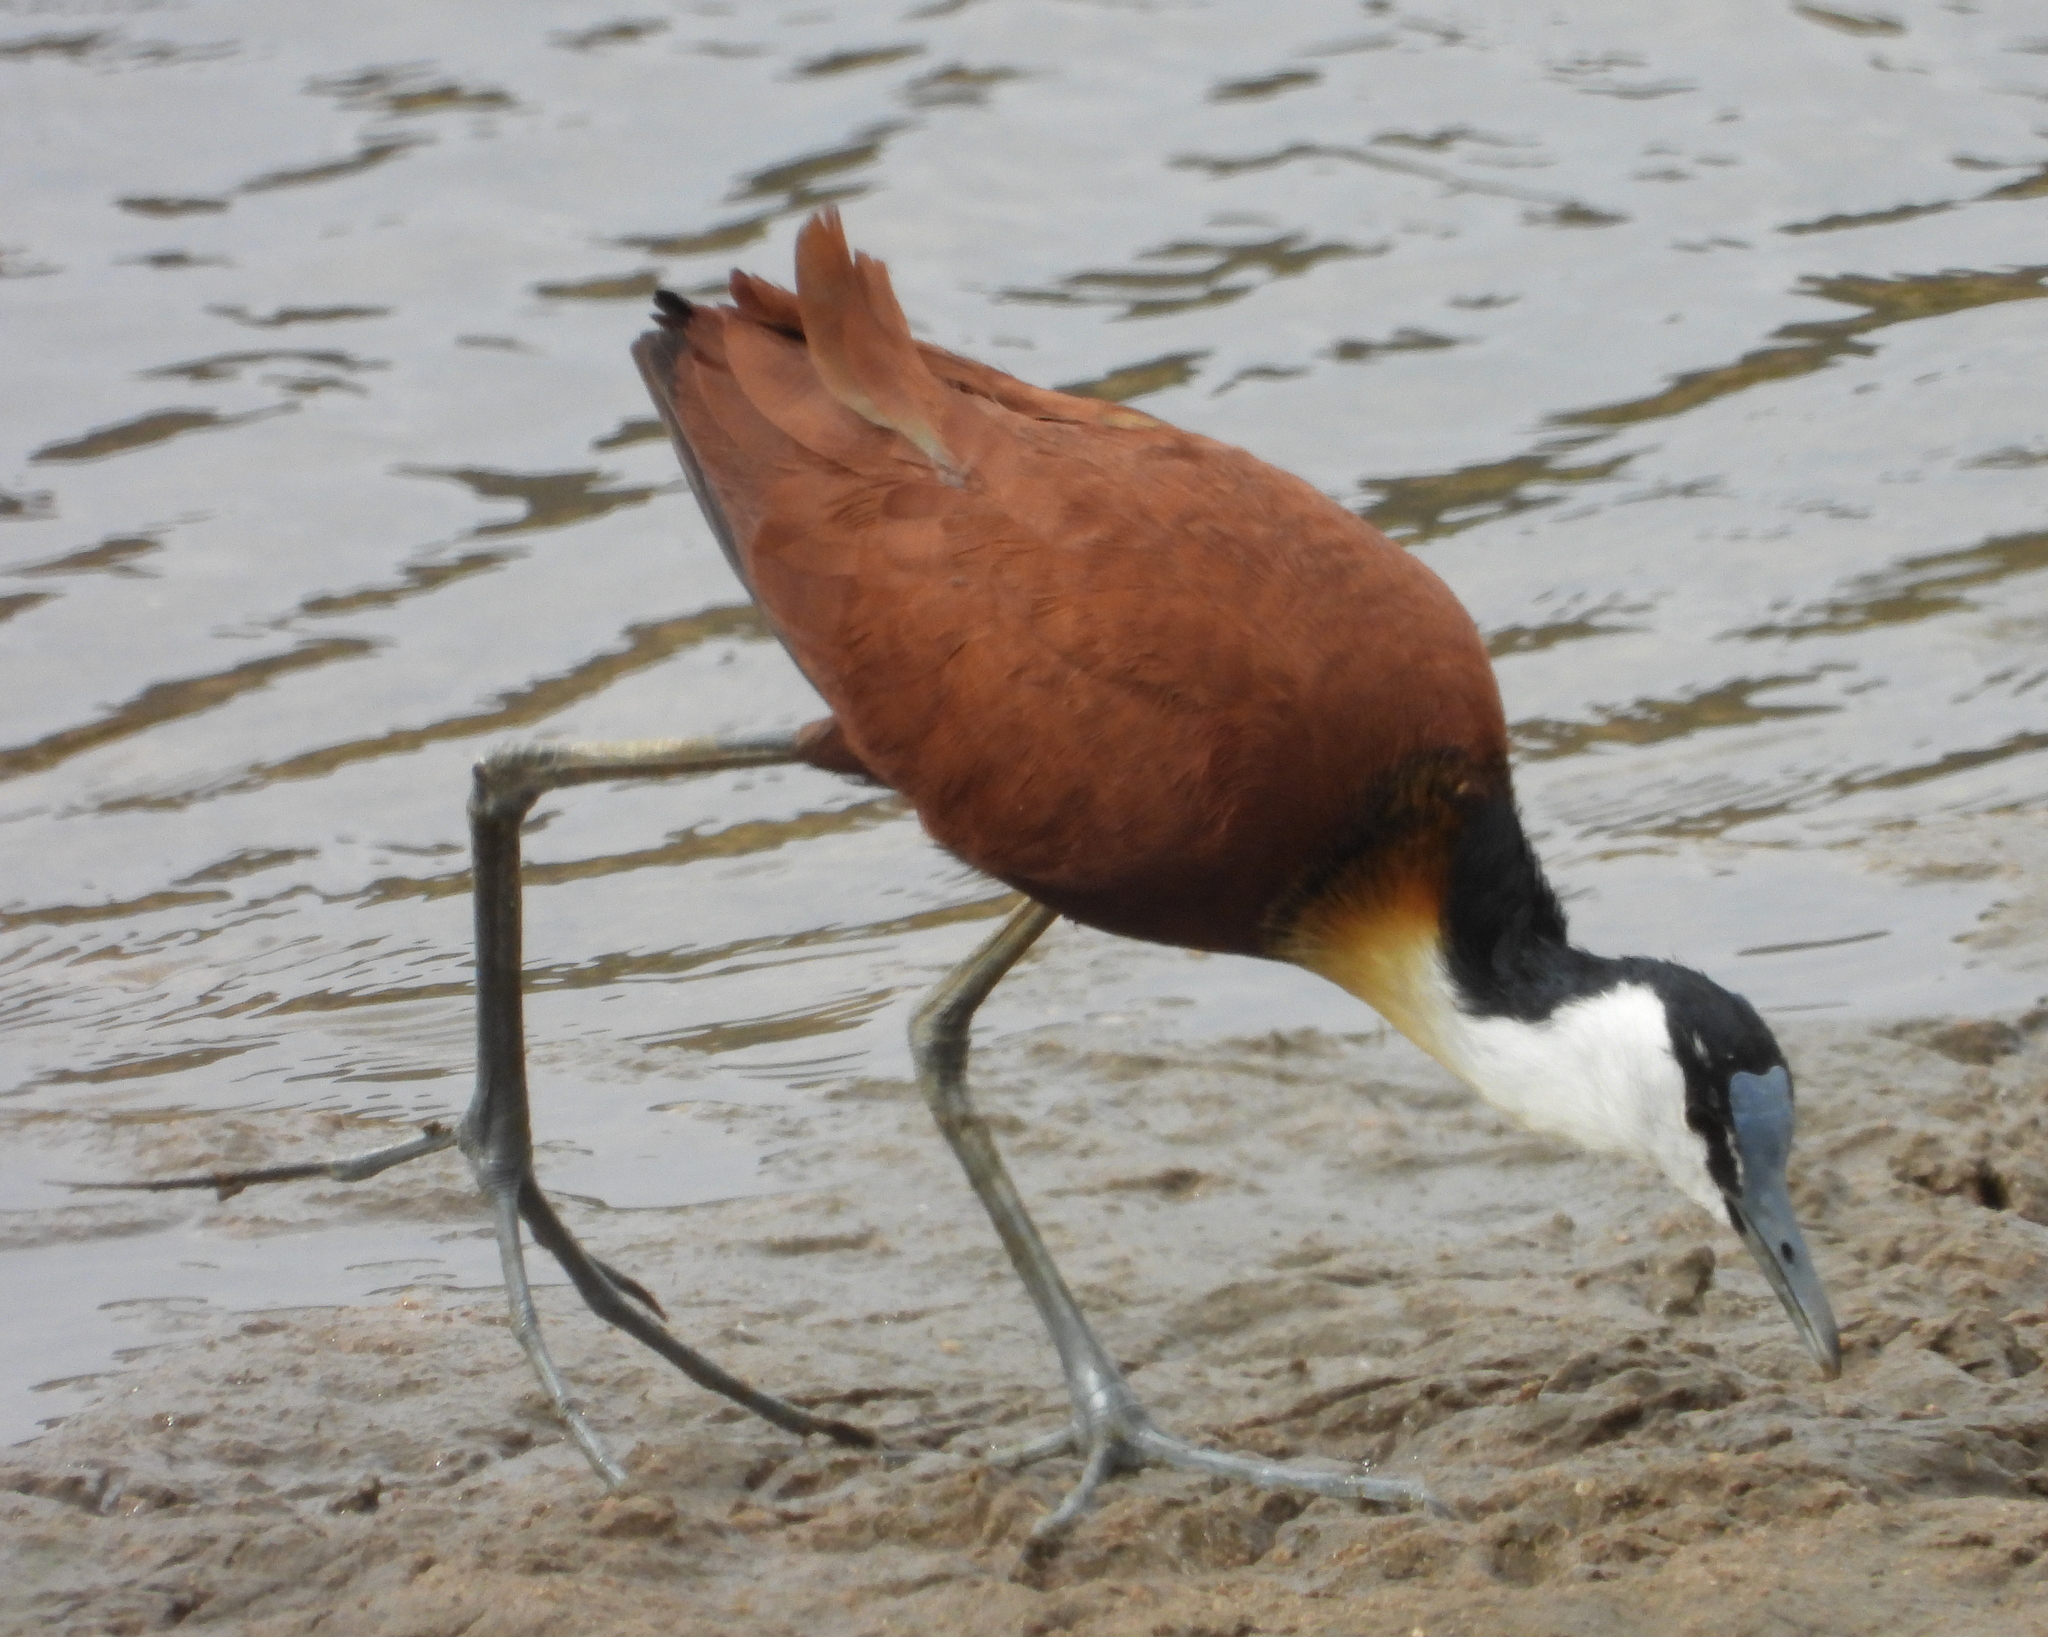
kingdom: Animalia
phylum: Chordata
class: Aves
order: Charadriiformes
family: Jacanidae
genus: Actophilornis
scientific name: Actophilornis africanus
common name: African jacana
